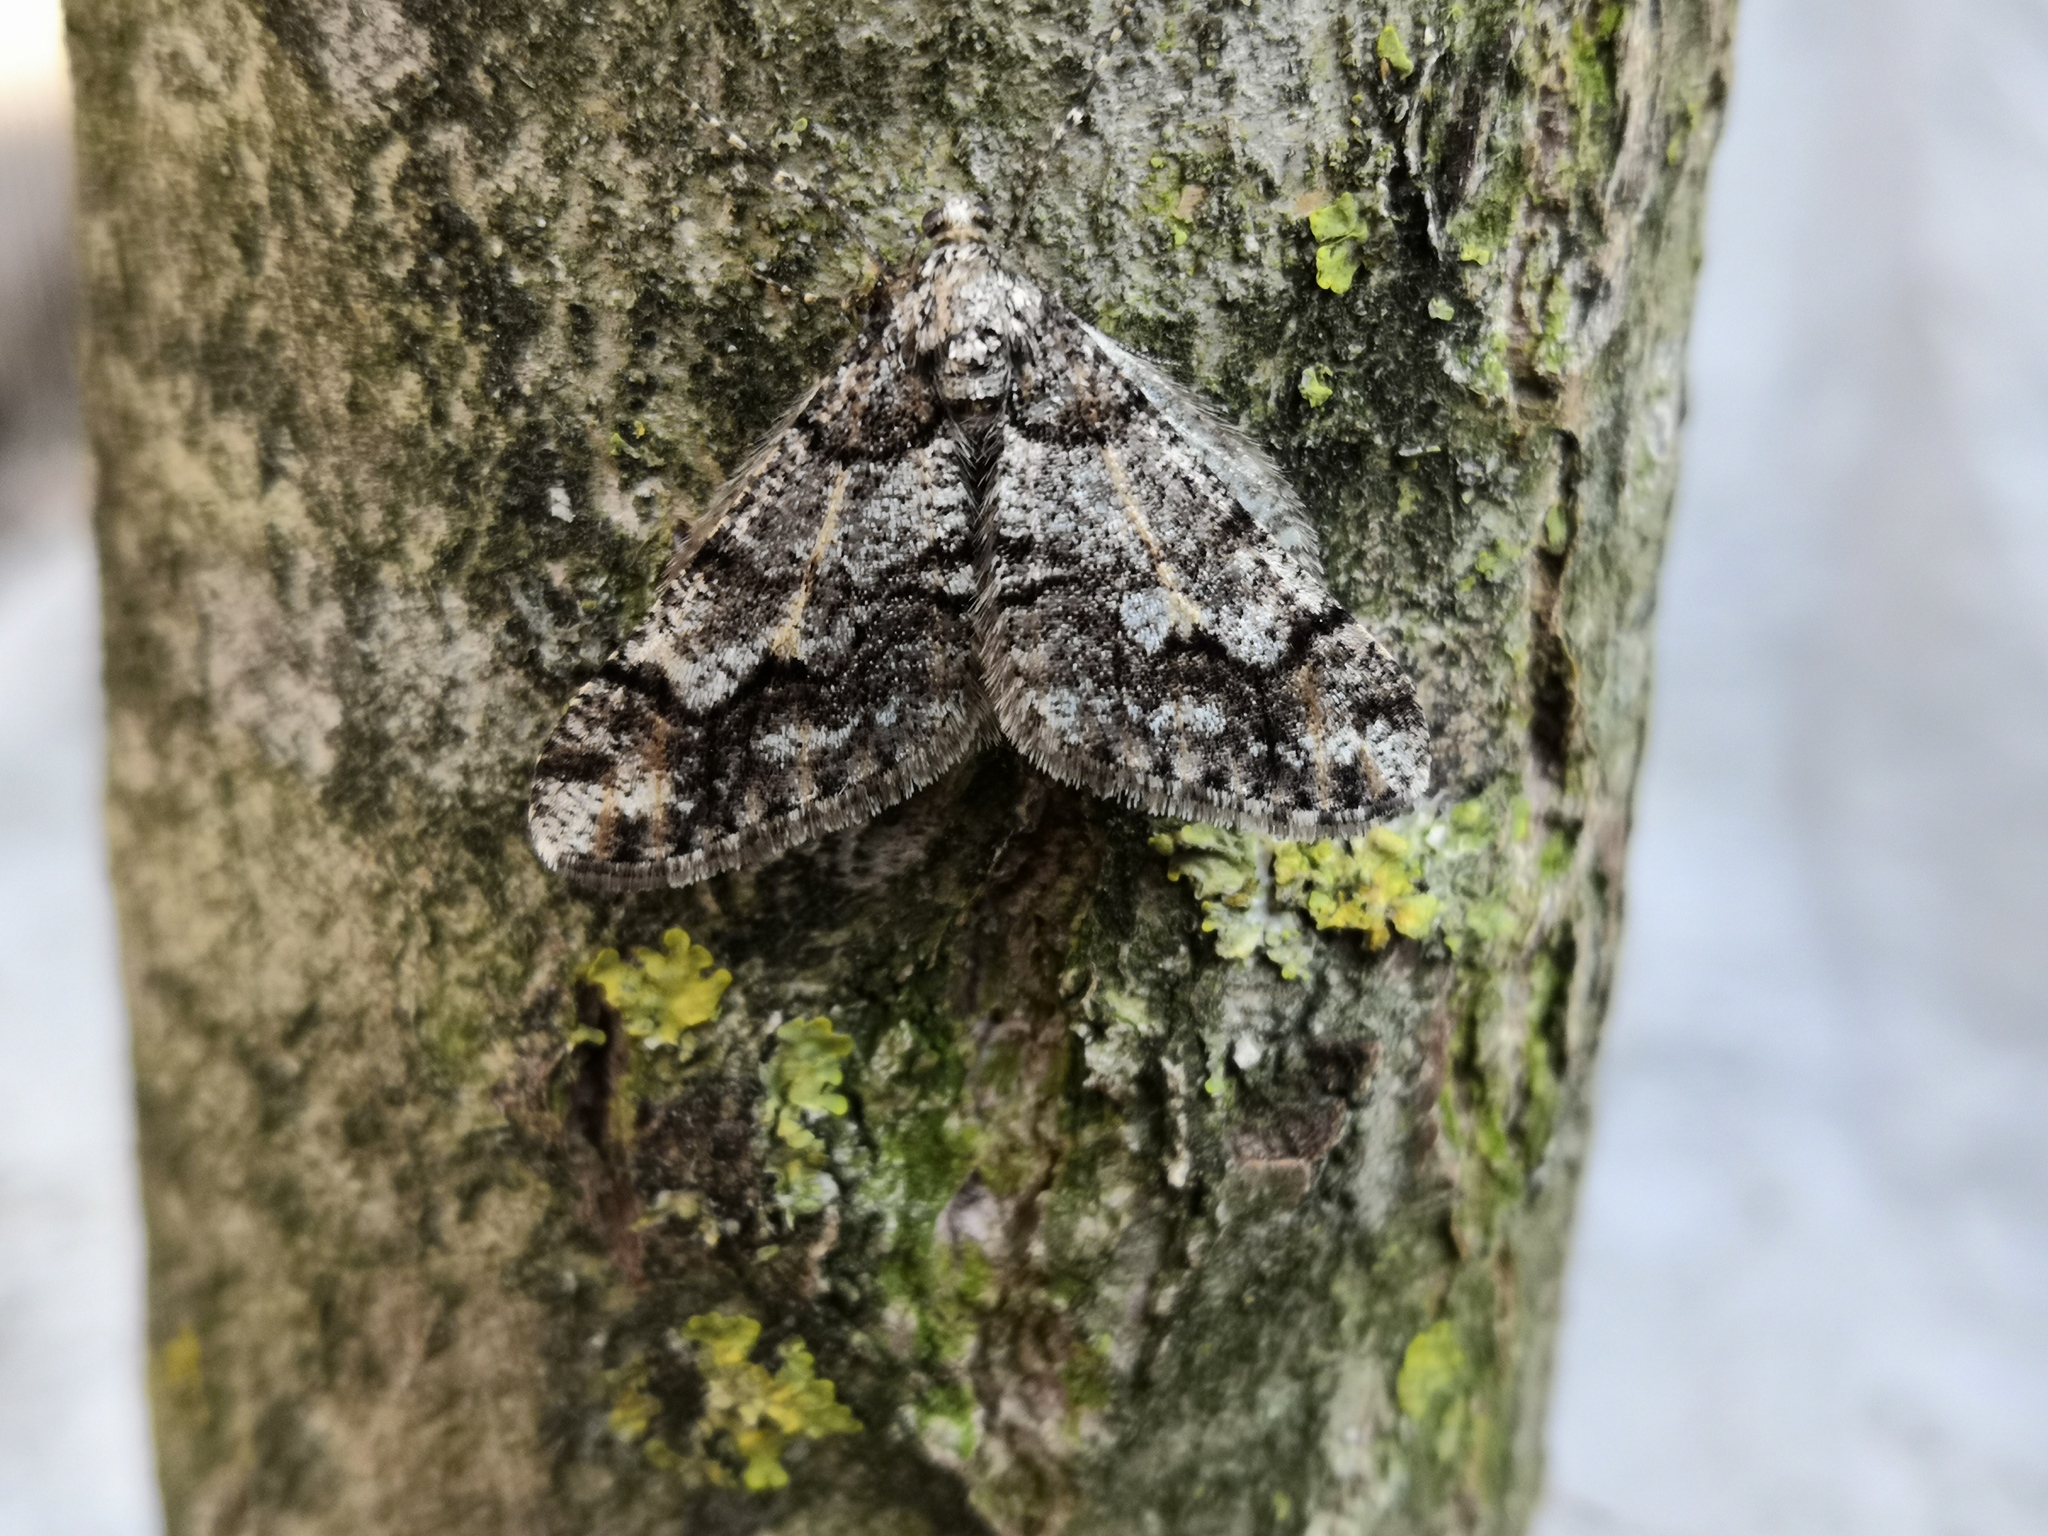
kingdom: Animalia
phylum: Arthropoda
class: Insecta
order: Lepidoptera
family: Geometridae
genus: Agriopis
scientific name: Agriopis leucophaearia
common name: Spring usher
